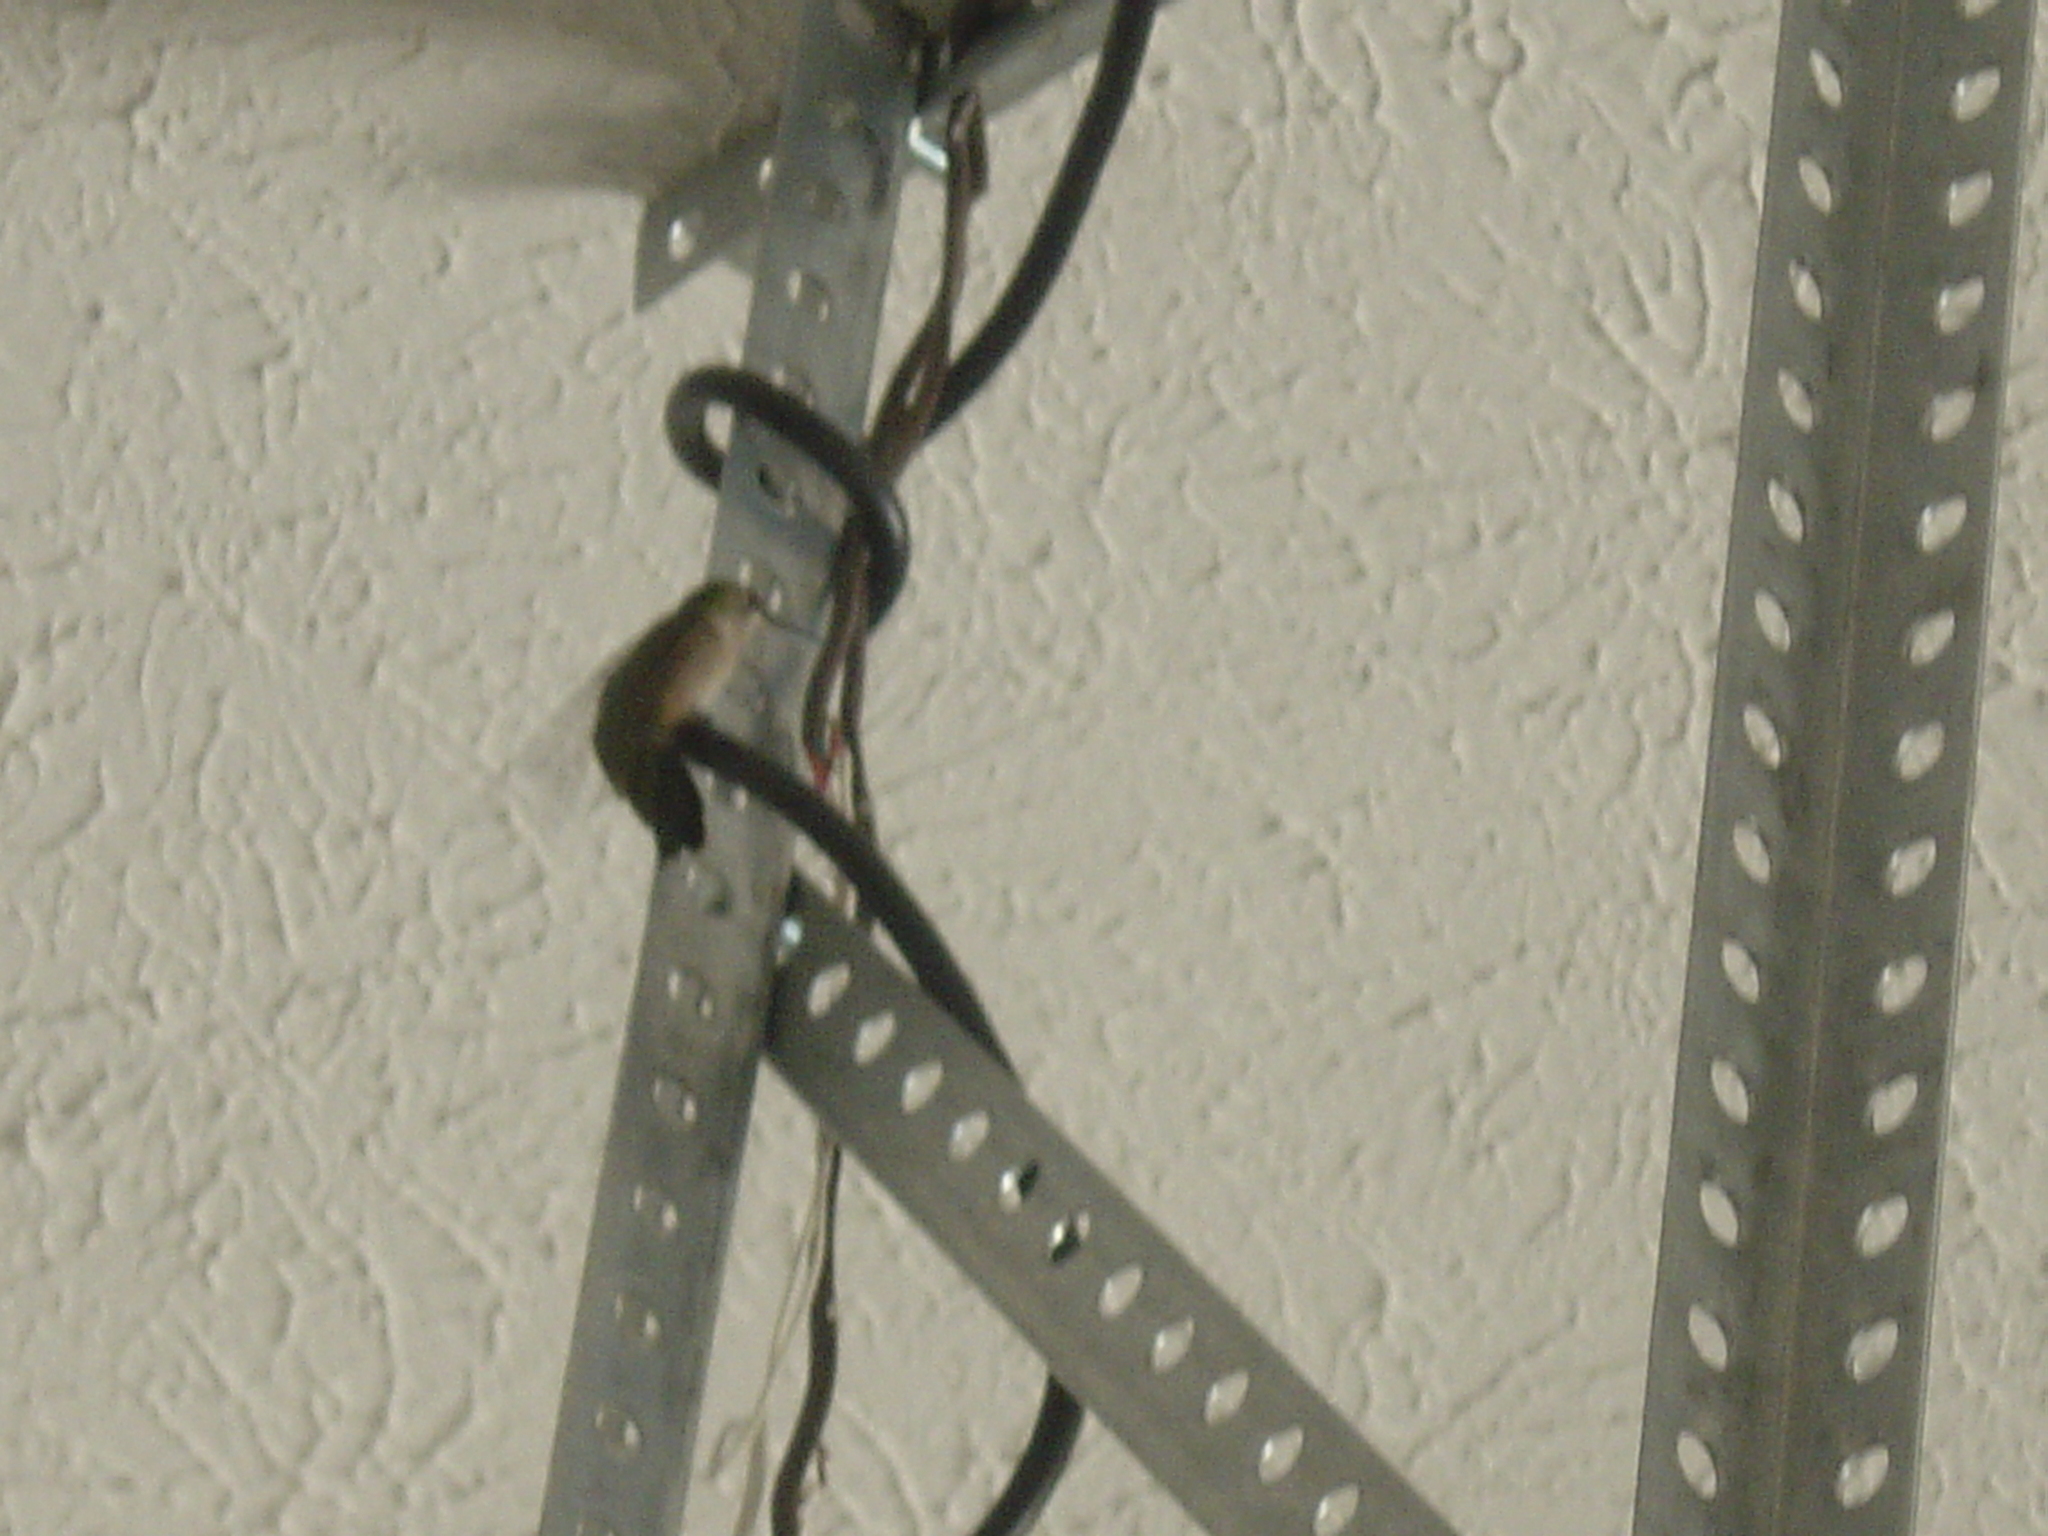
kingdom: Animalia
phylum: Chordata
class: Aves
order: Apodiformes
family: Trochilidae
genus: Archilochus
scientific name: Archilochus colubris
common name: Ruby-throated hummingbird
